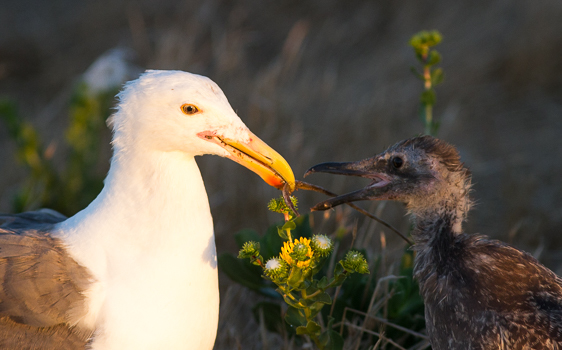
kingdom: Animalia
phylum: Chordata
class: Aves
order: Charadriiformes
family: Laridae
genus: Larus
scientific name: Larus occidentalis
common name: Western gull
